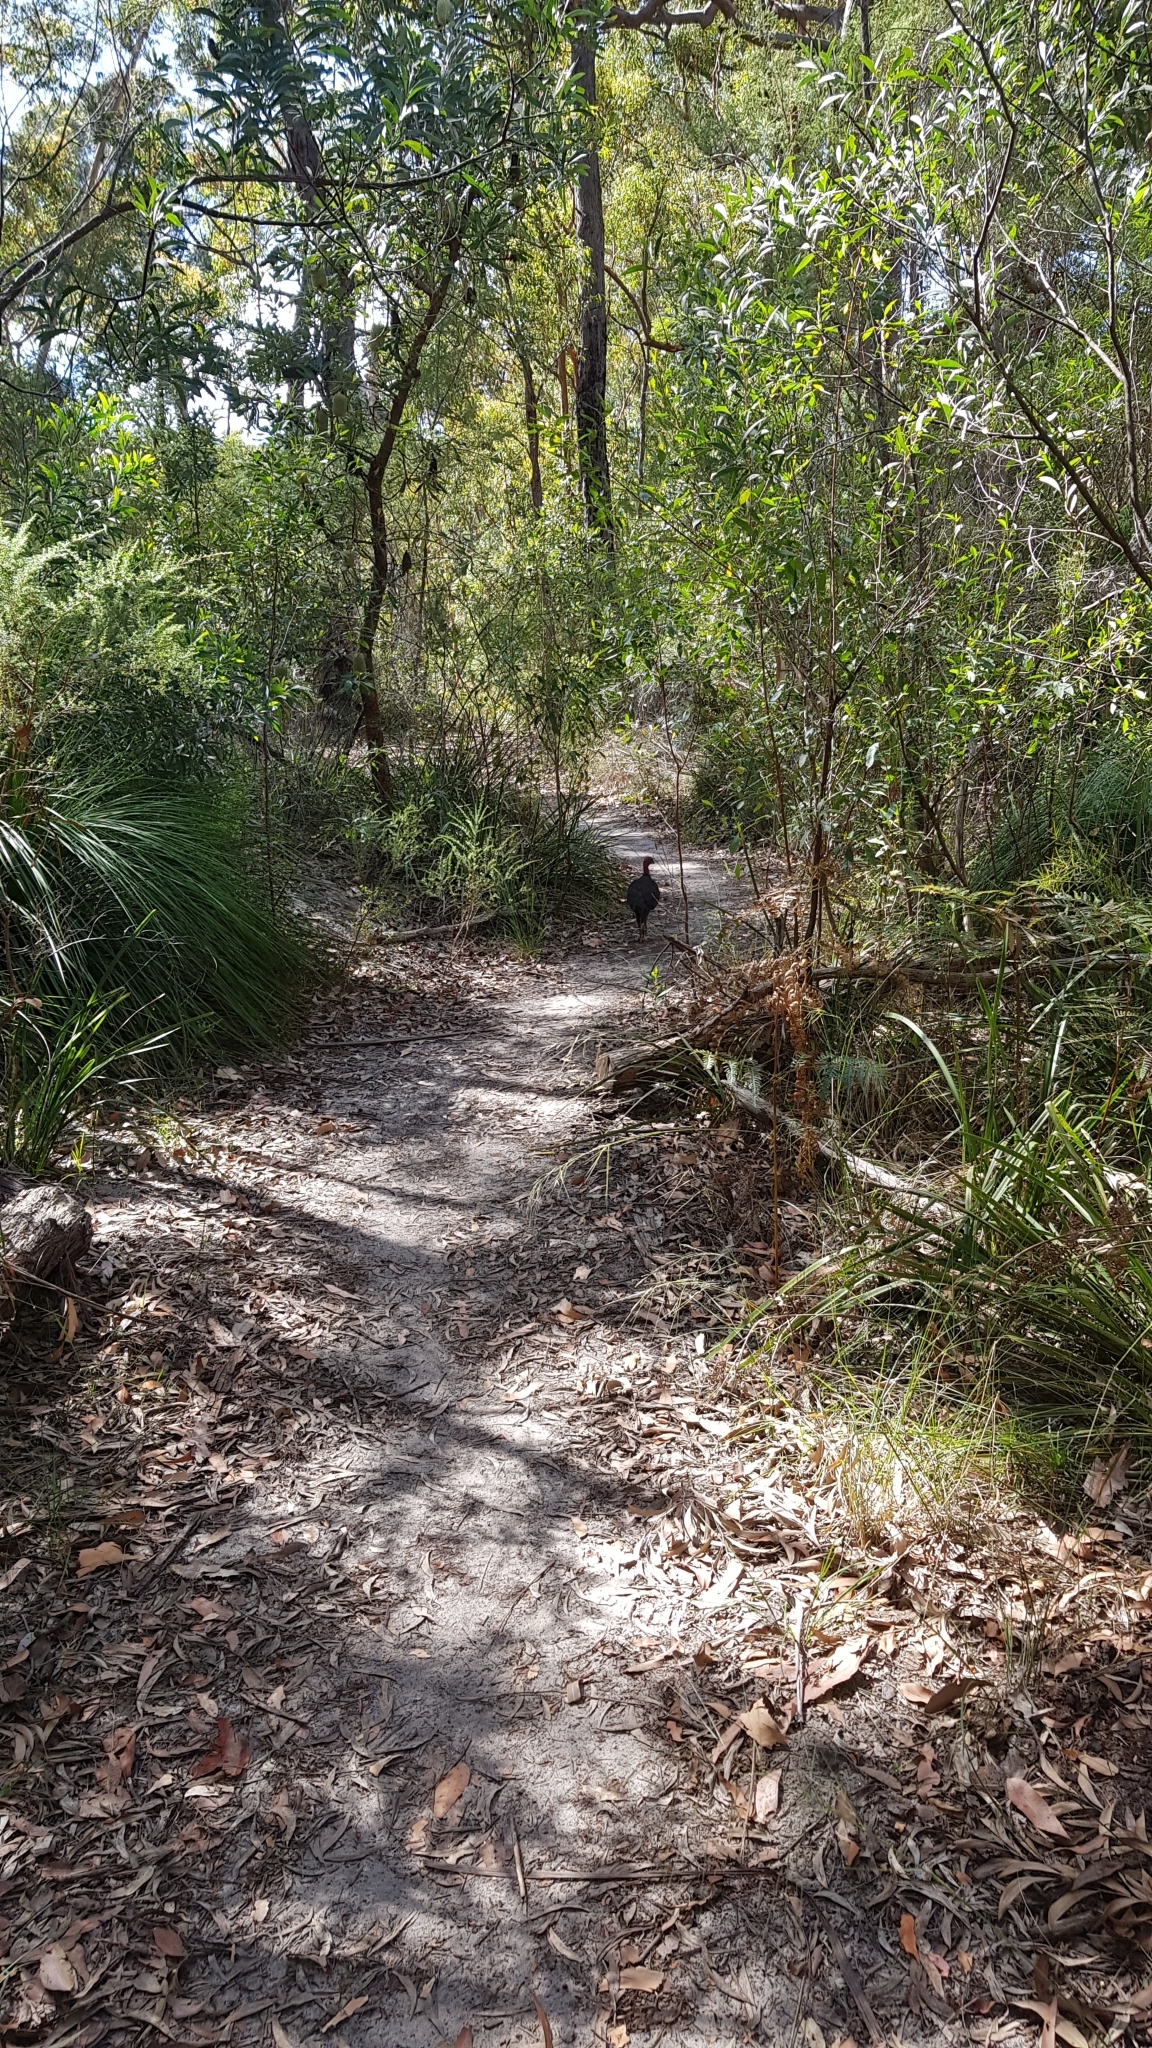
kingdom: Animalia
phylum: Chordata
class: Aves
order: Galliformes
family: Megapodiidae
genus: Alectura
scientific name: Alectura lathami
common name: Australian brushturkey
